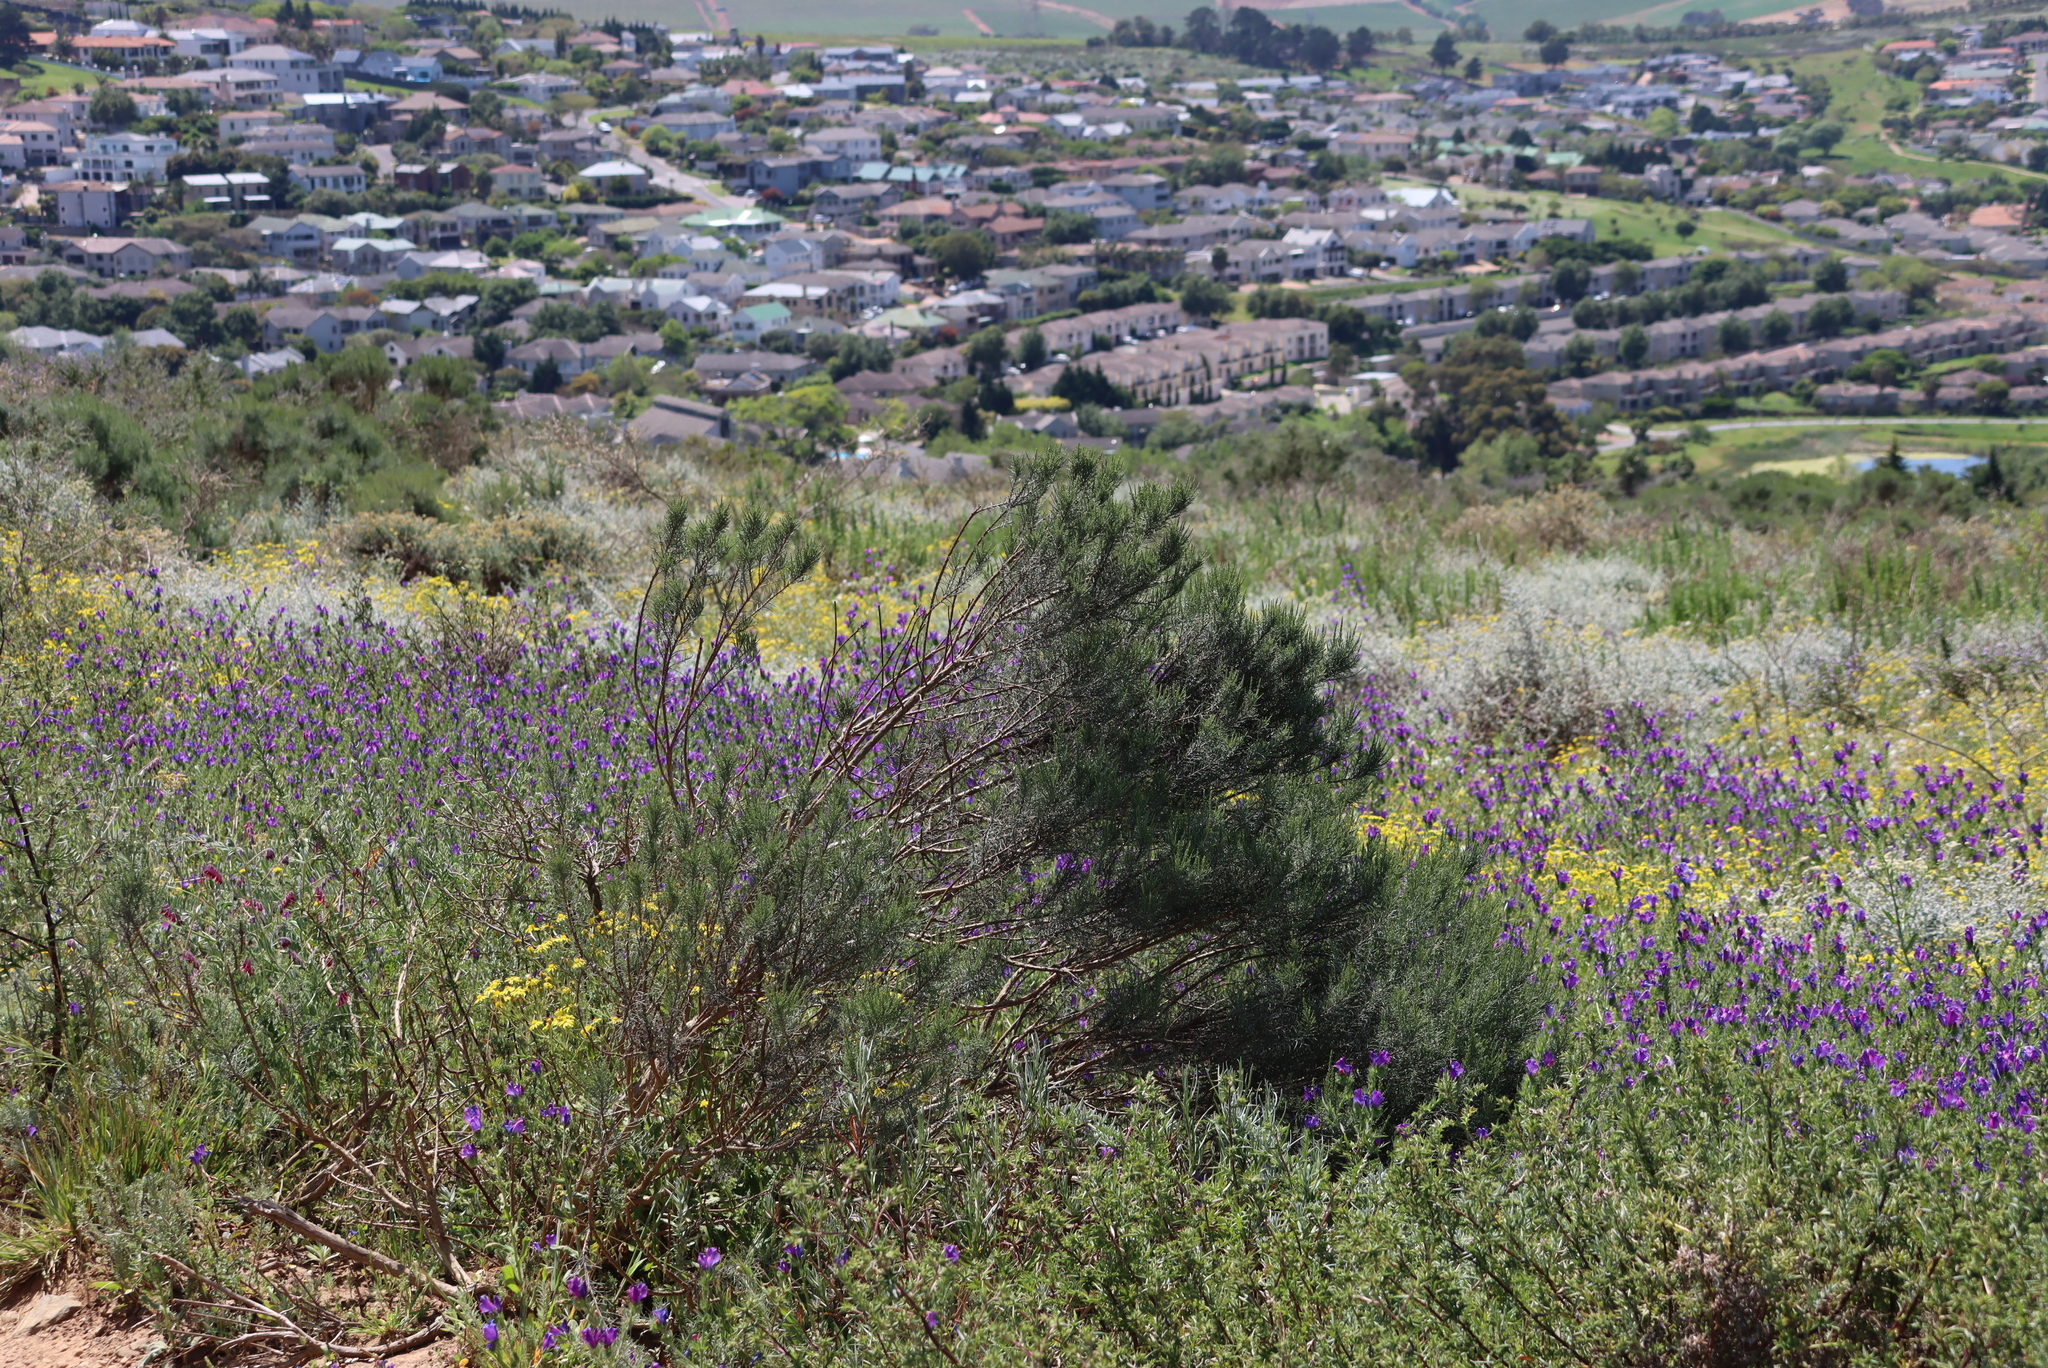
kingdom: Plantae
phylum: Tracheophyta
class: Magnoliopsida
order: Asterales
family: Asteraceae
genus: Dicerothamnus
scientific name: Dicerothamnus rhinocerotis
